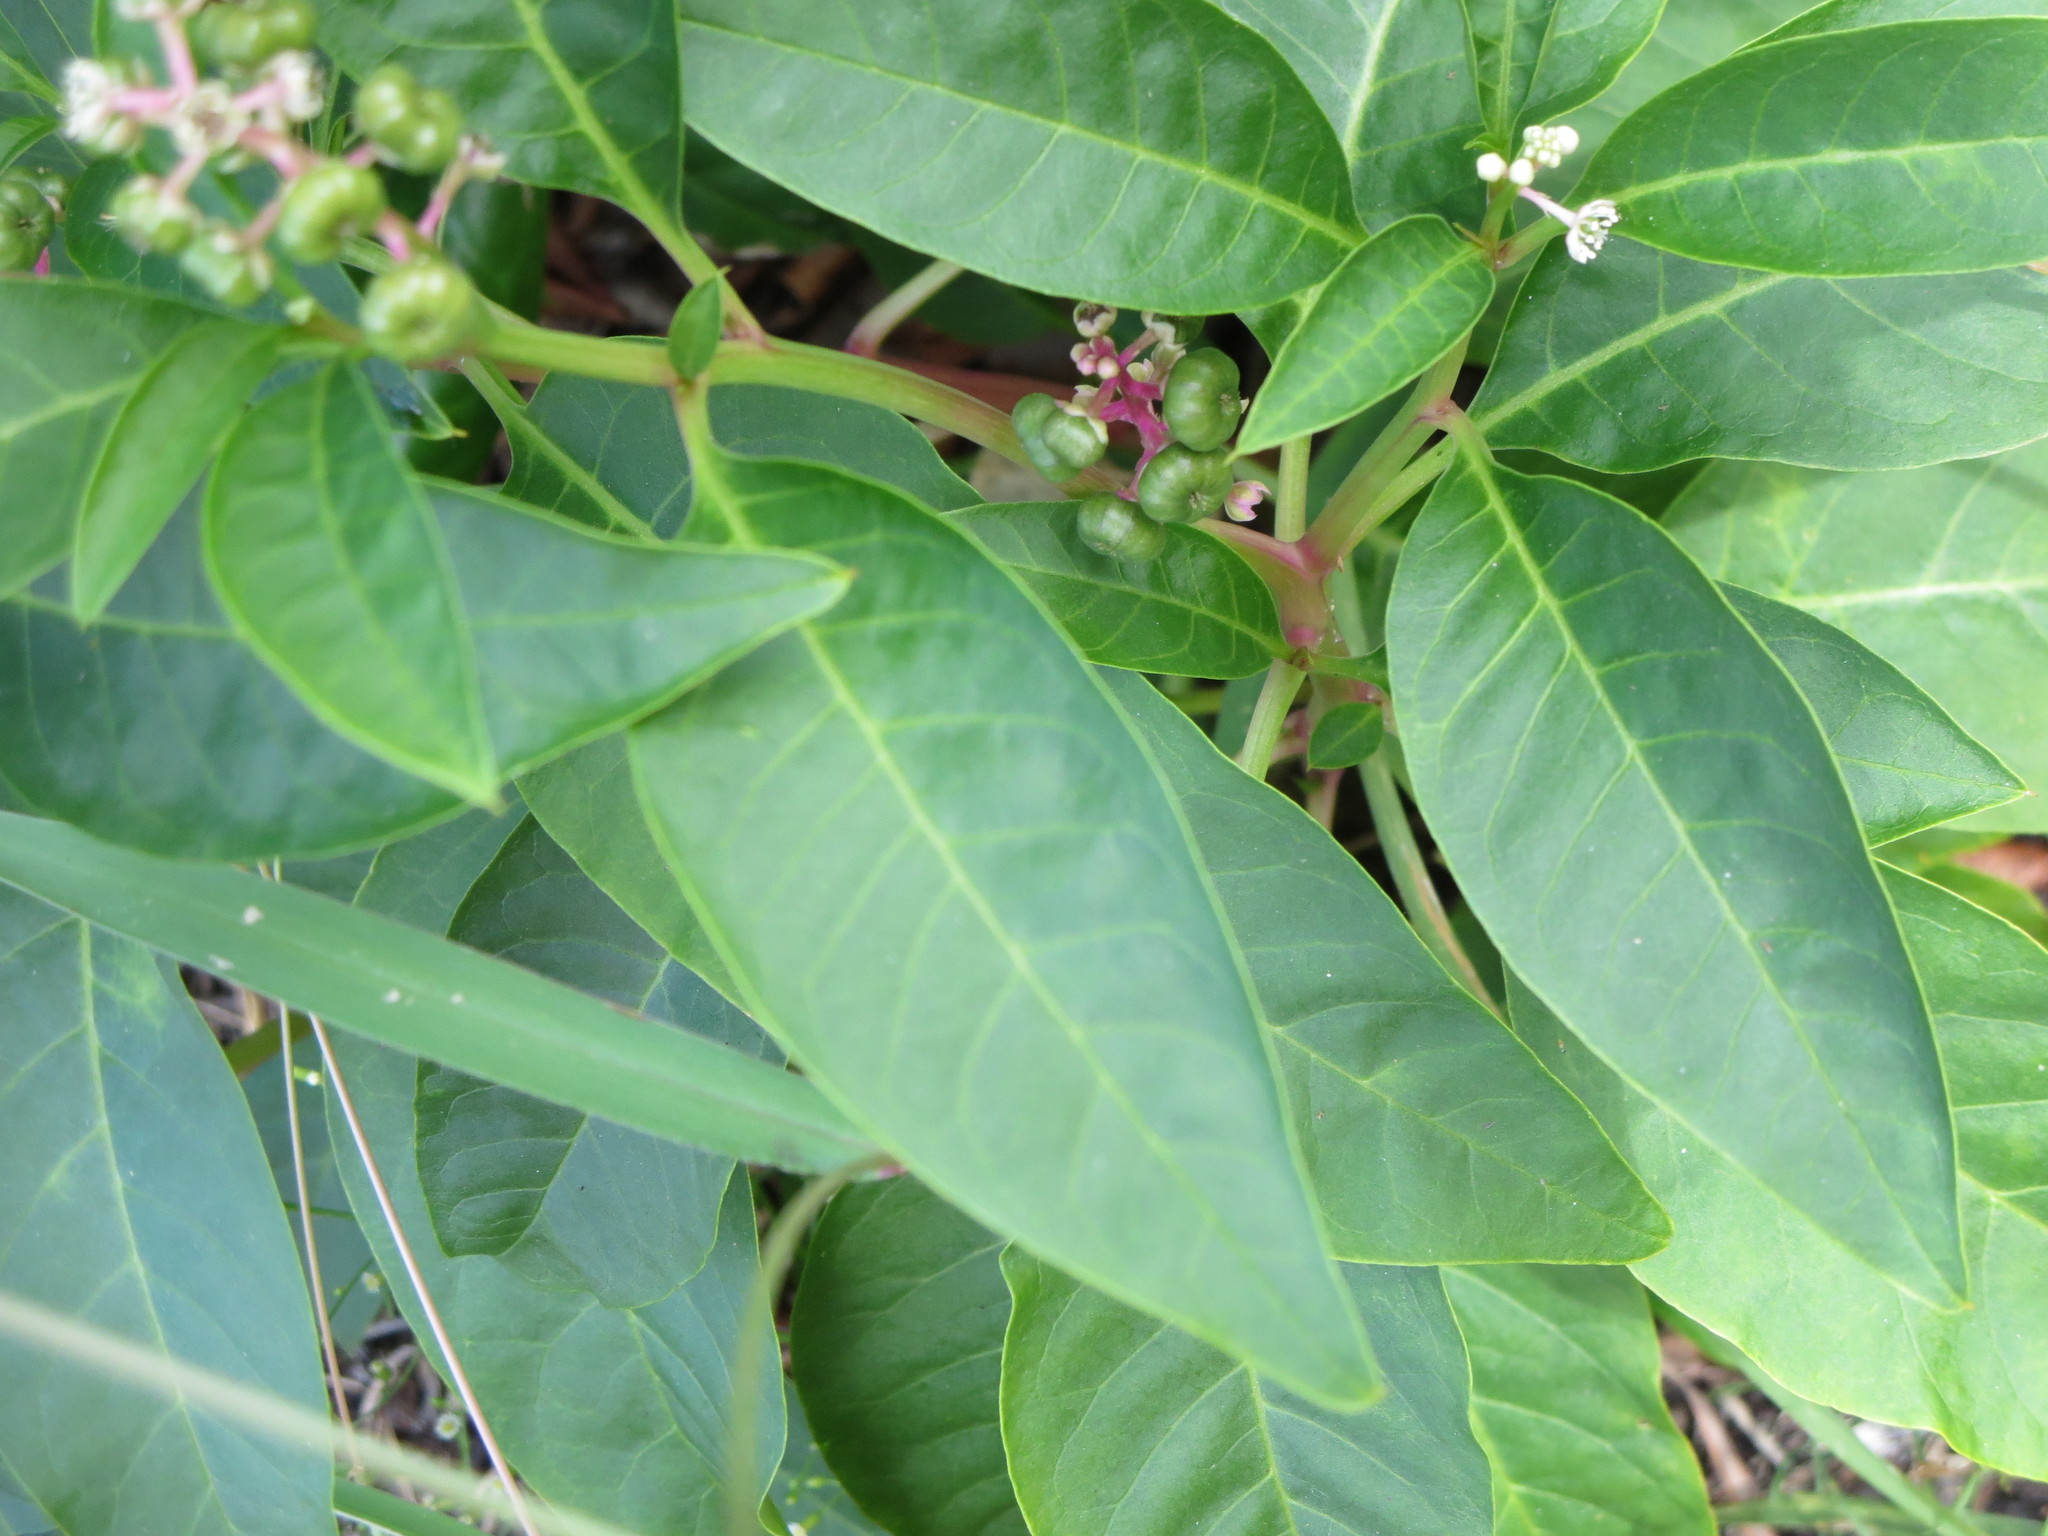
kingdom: Plantae
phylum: Tracheophyta
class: Magnoliopsida
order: Caryophyllales
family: Phytolaccaceae
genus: Phytolacca
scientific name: Phytolacca americana
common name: American pokeweed
